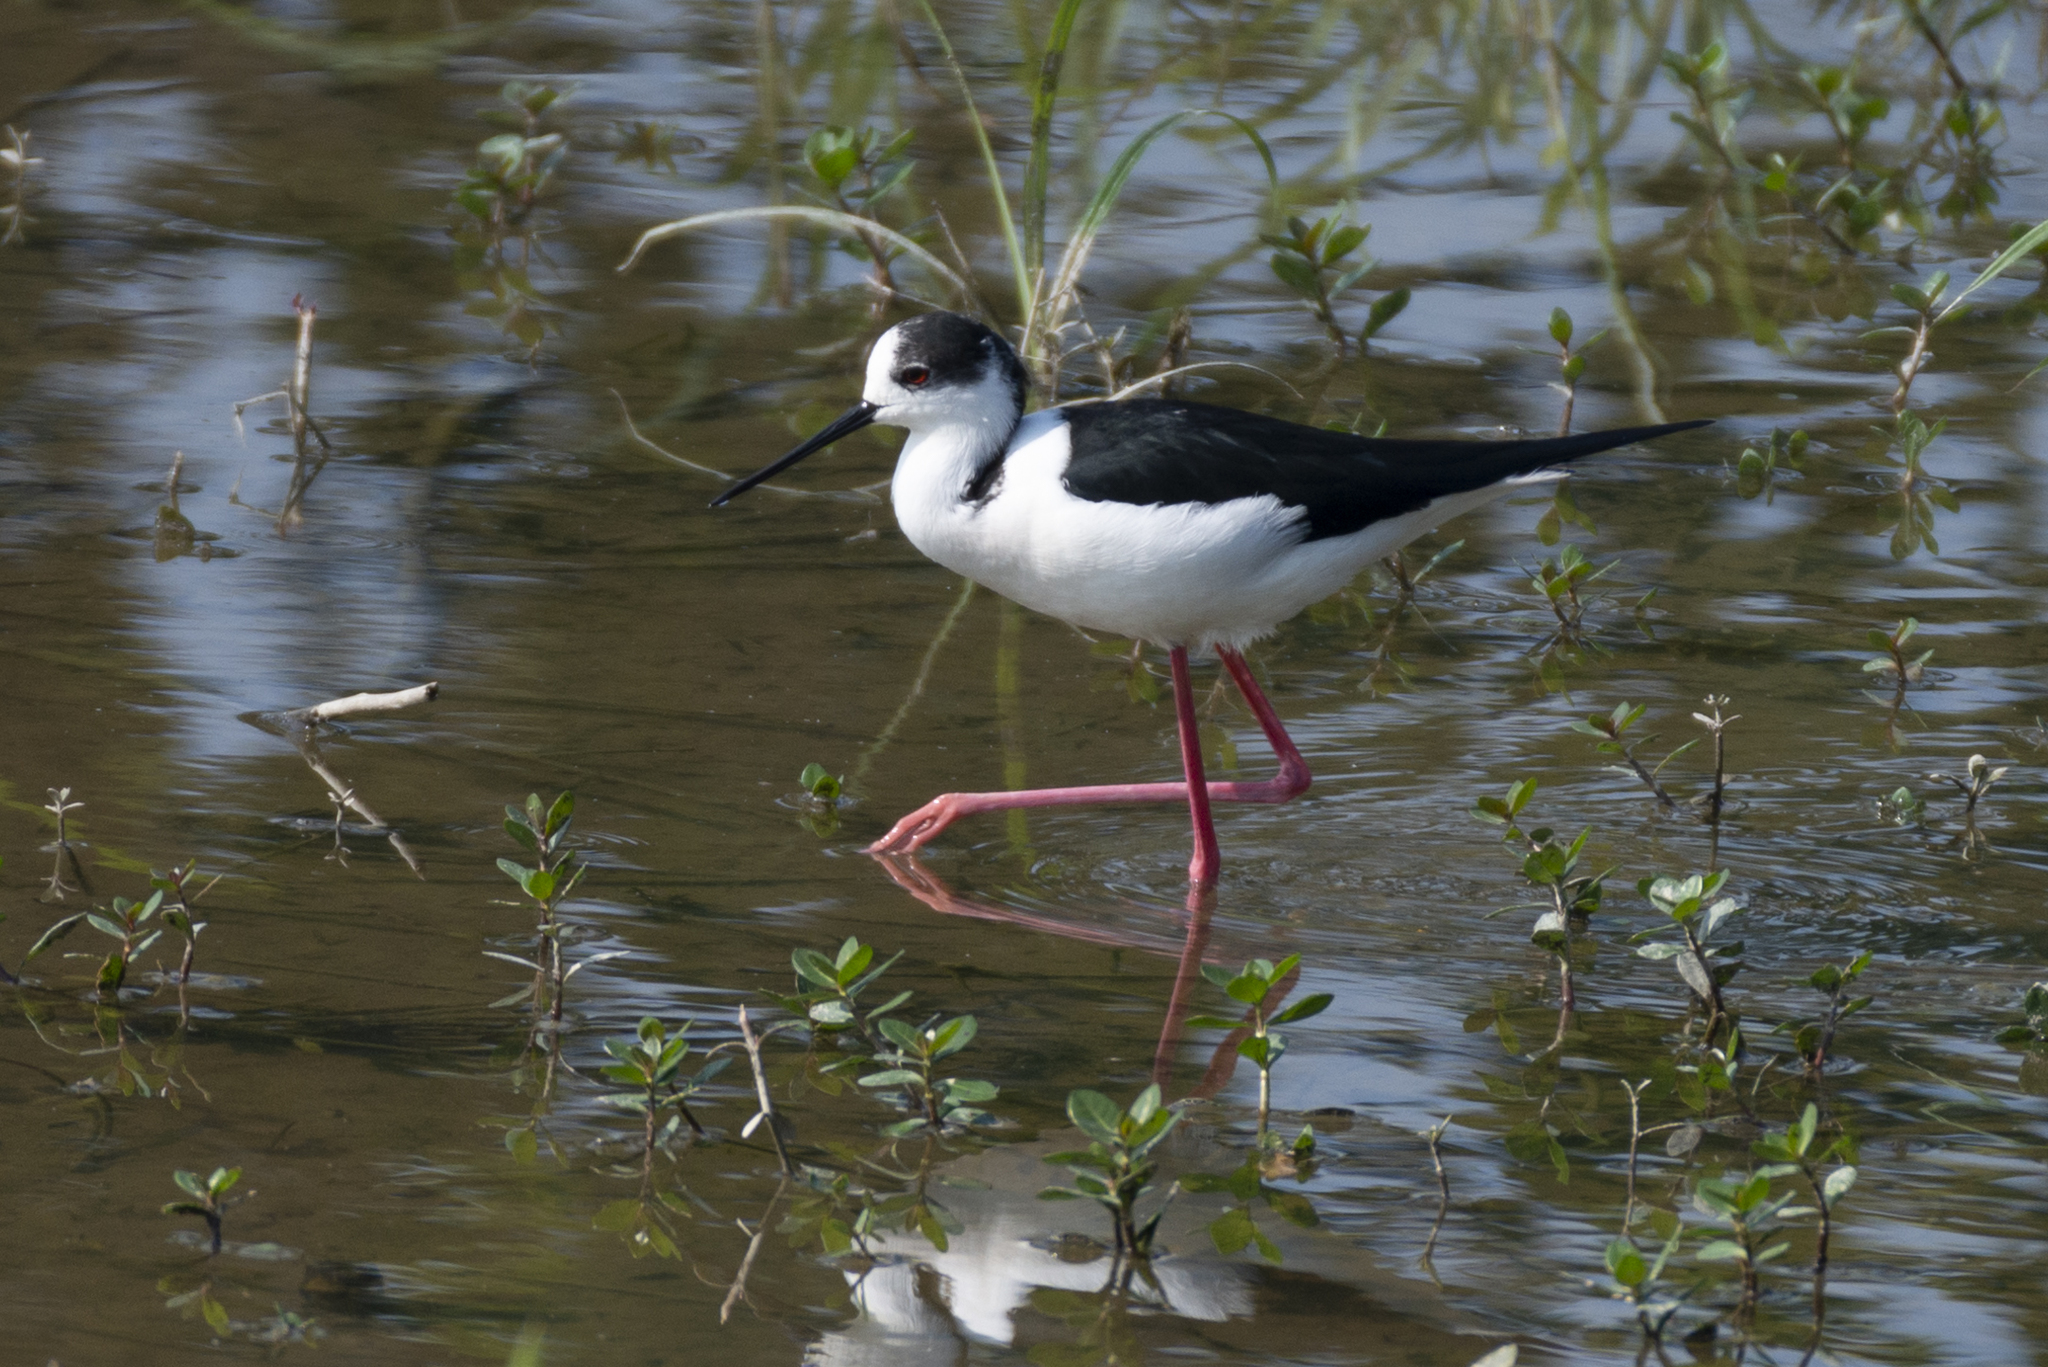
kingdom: Animalia
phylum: Chordata
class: Aves
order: Charadriiformes
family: Recurvirostridae
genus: Himantopus
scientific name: Himantopus himantopus
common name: Black-winged stilt
